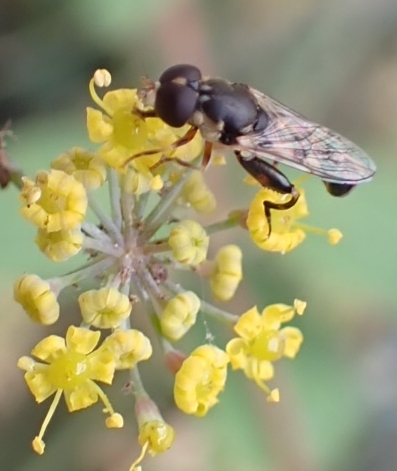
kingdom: Animalia
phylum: Arthropoda
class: Insecta
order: Diptera
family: Syrphidae
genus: Syritta
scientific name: Syritta pipiens
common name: Hover fly
